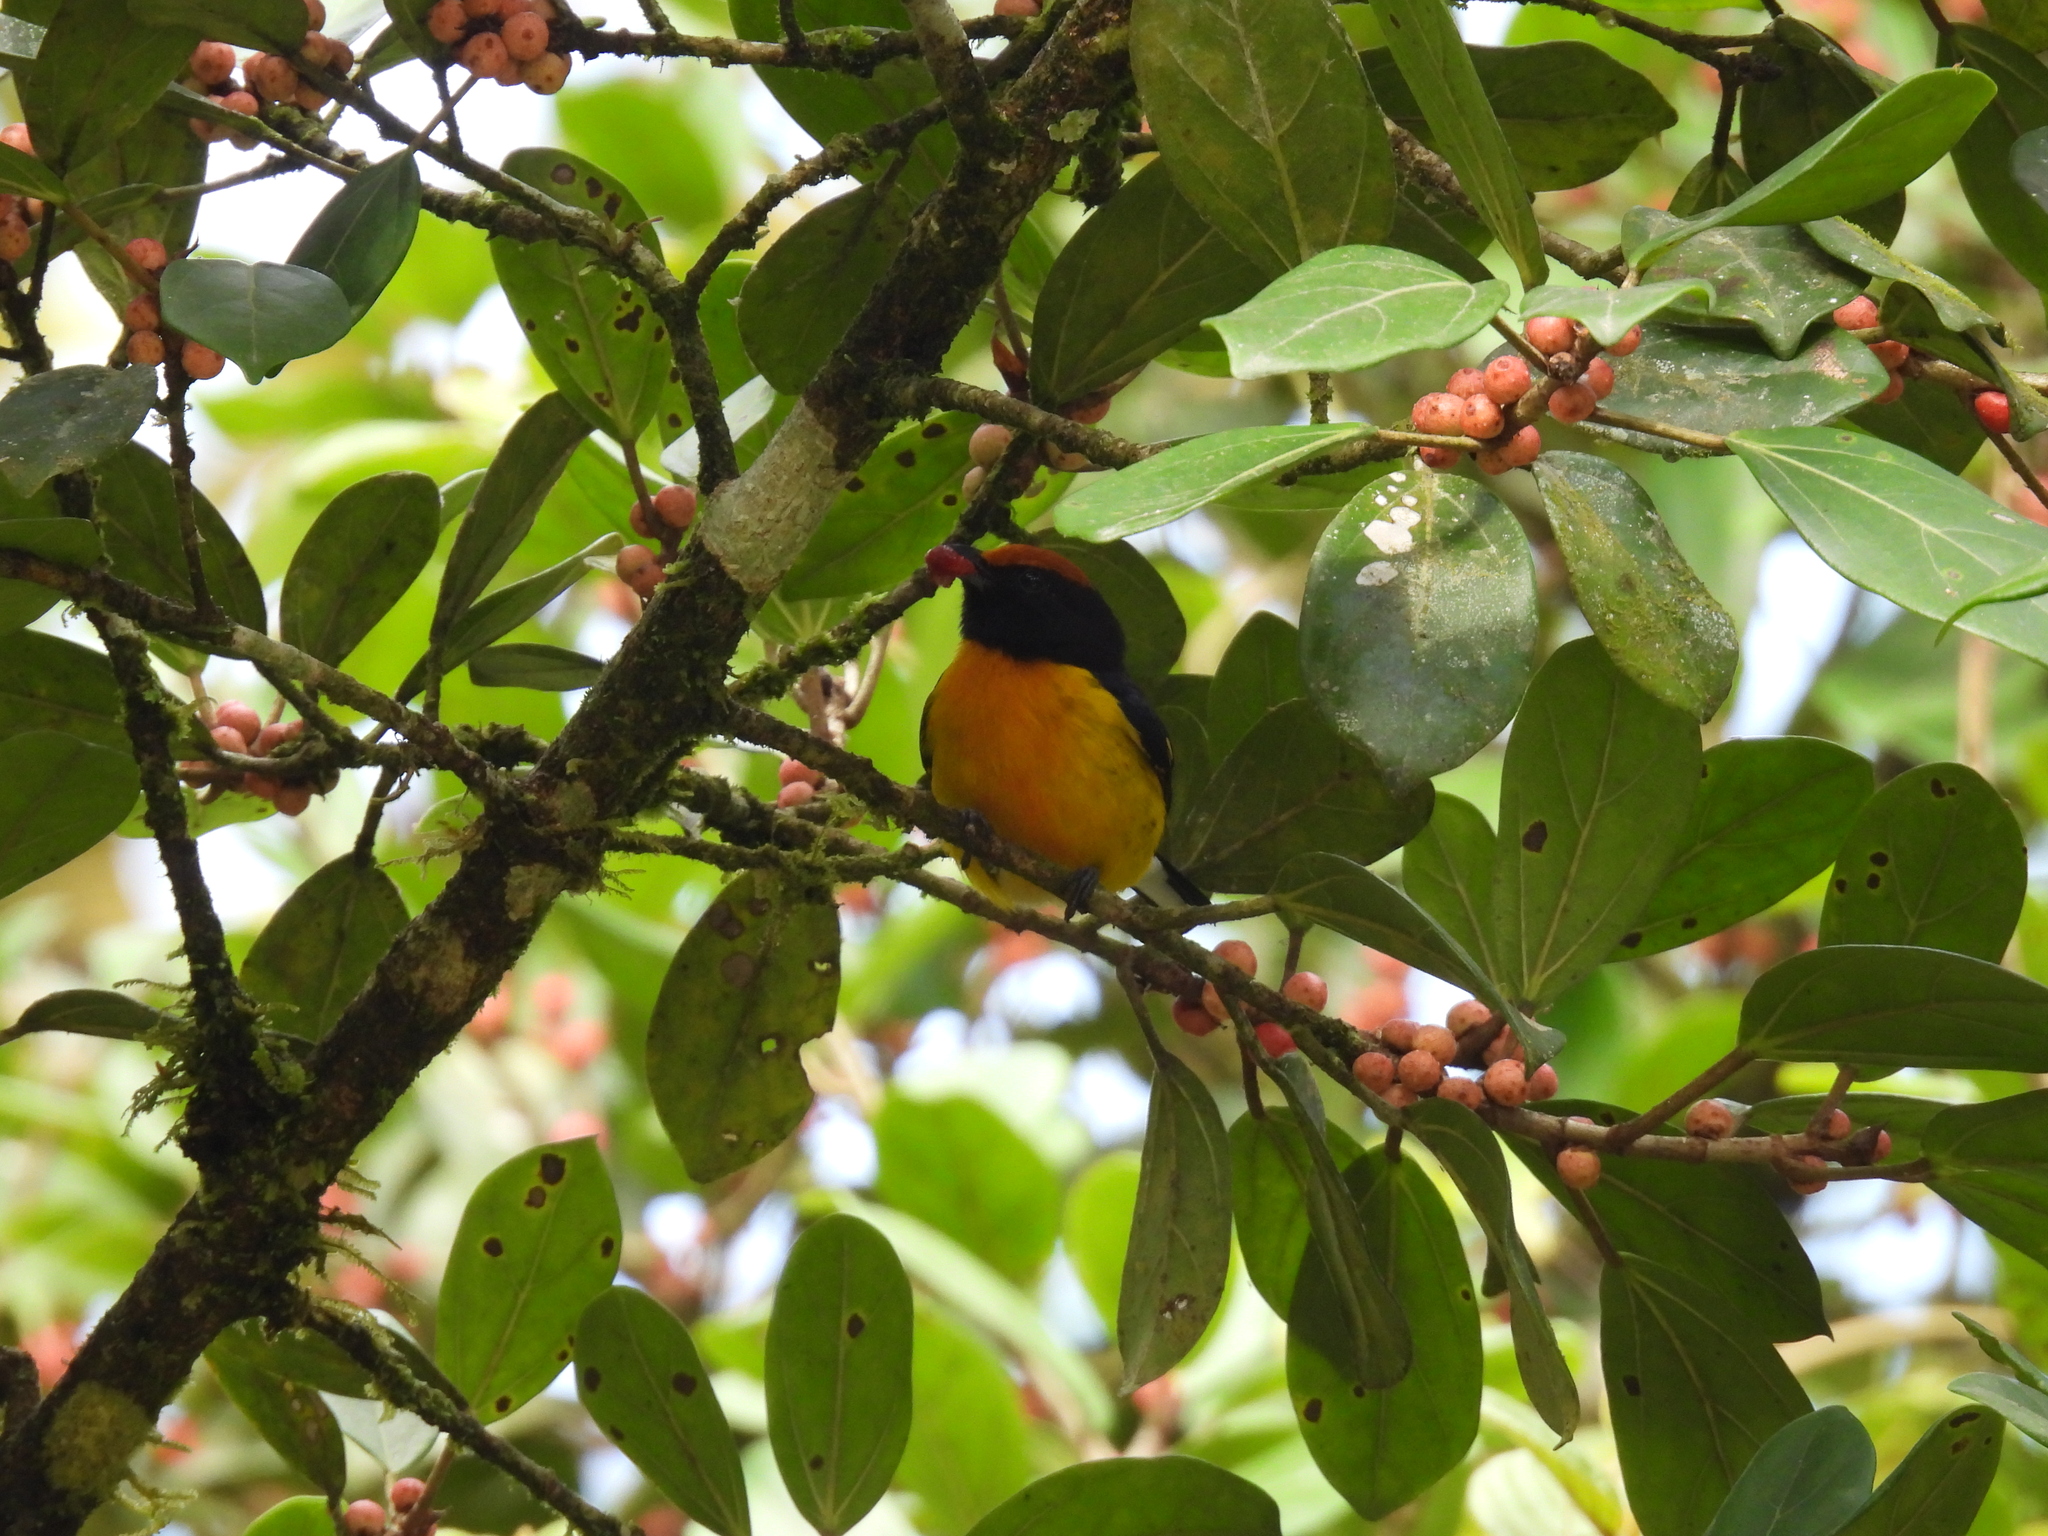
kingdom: Animalia
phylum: Chordata
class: Aves
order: Passeriformes
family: Fringillidae
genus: Euphonia
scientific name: Euphonia anneae
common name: Tawny-capped euphonia
